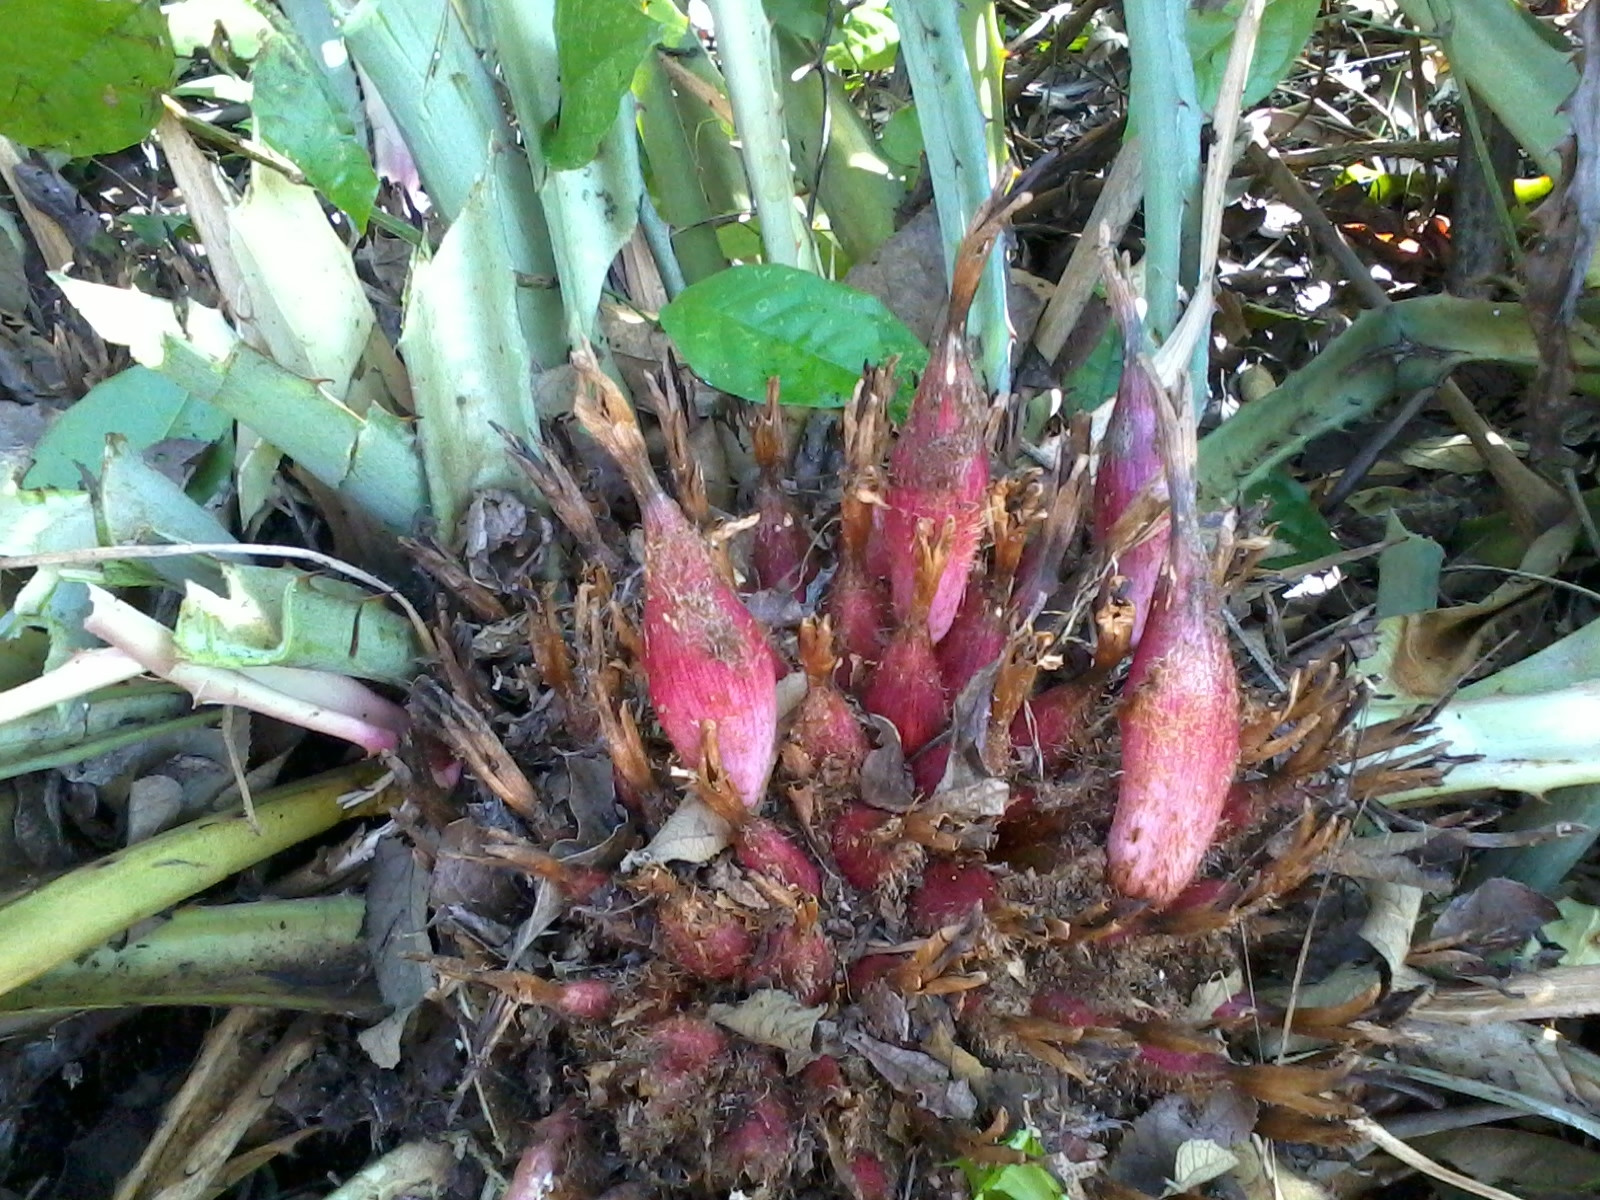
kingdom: Plantae
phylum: Tracheophyta
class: Liliopsida
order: Poales
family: Bromeliaceae
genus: Bromelia
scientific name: Bromelia karatas
